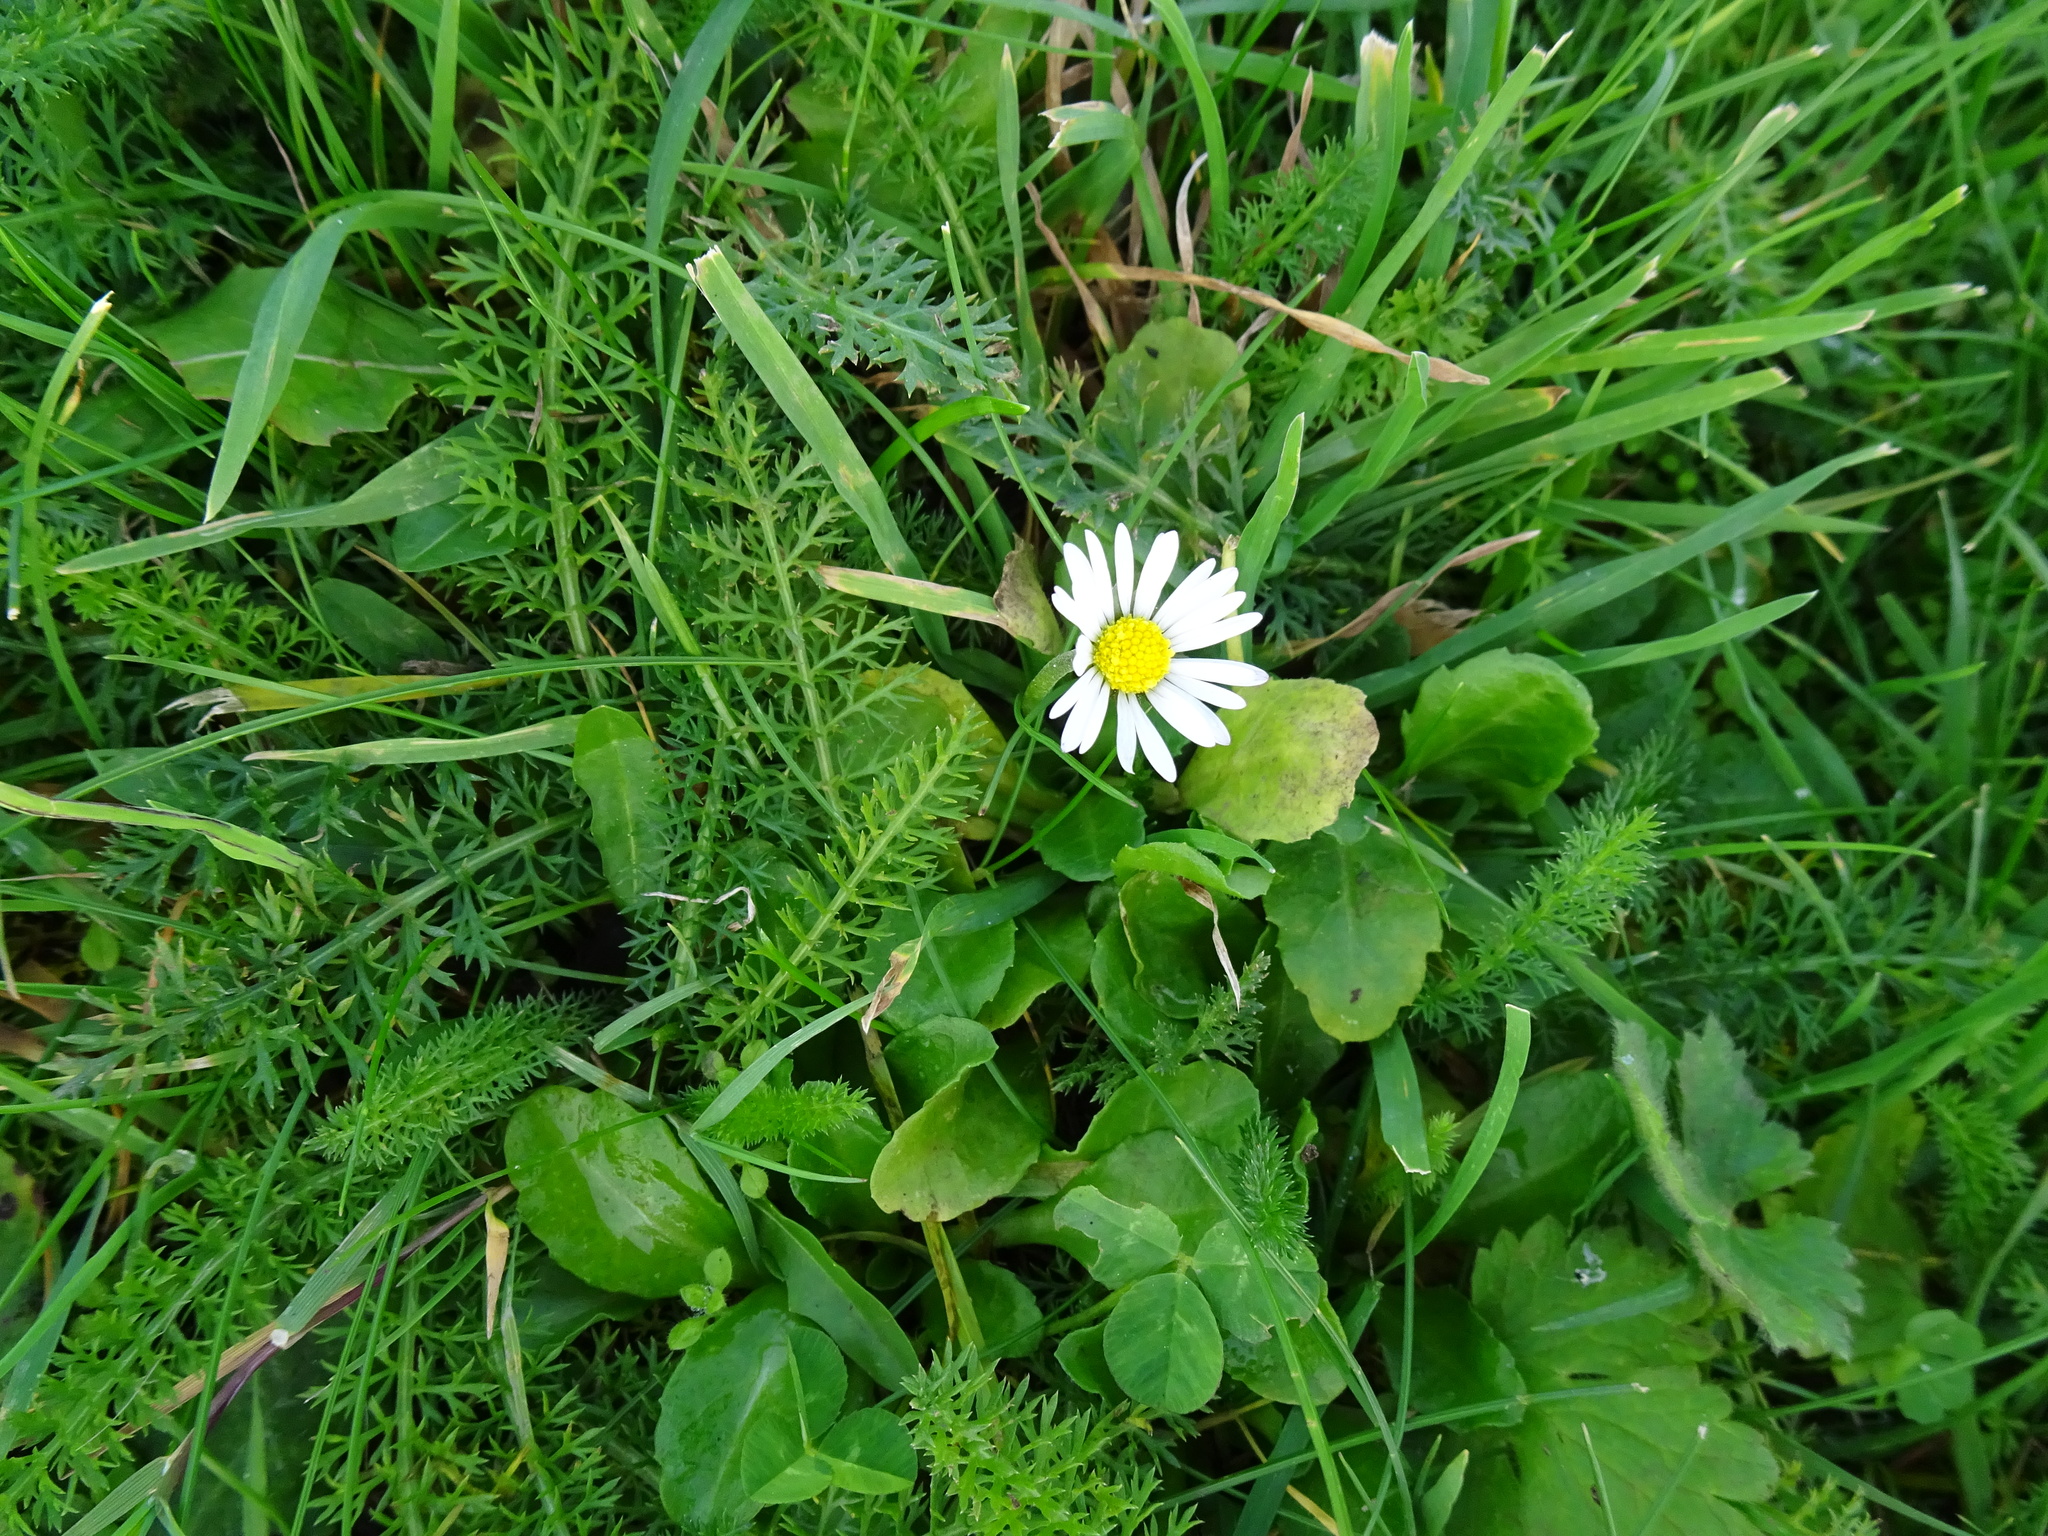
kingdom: Plantae
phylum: Tracheophyta
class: Magnoliopsida
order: Asterales
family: Asteraceae
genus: Bellis
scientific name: Bellis perennis
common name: Lawndaisy
